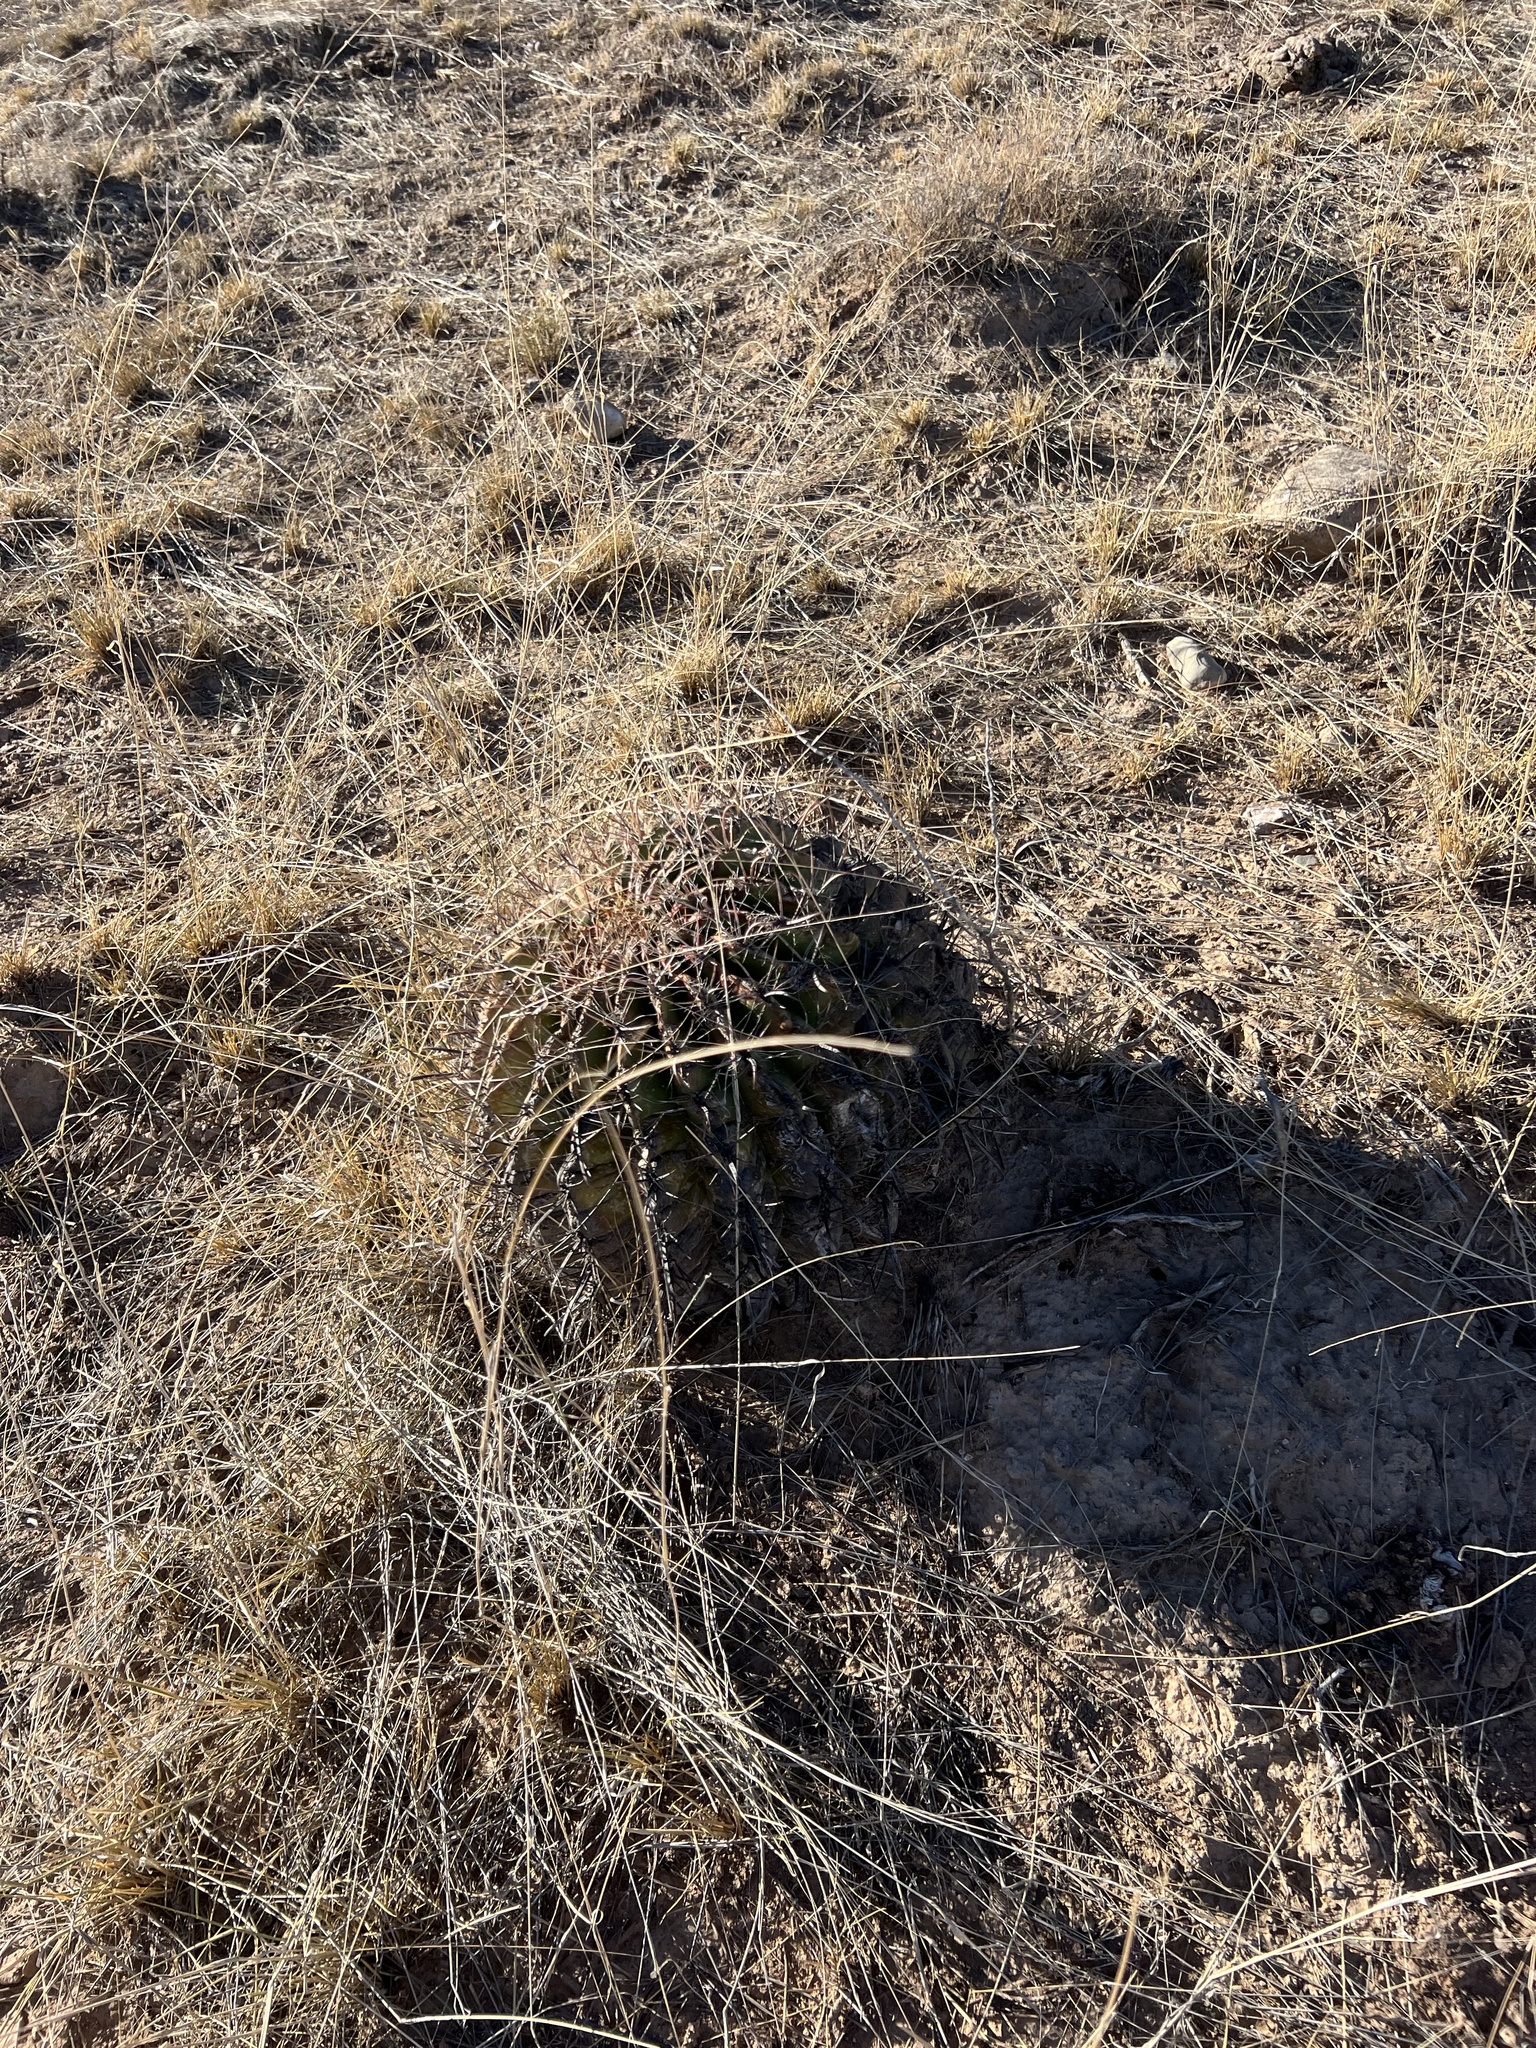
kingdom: Plantae
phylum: Tracheophyta
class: Magnoliopsida
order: Caryophyllales
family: Cactaceae
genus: Ferocactus
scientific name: Ferocactus wislizeni
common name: Candy barrel cactus
